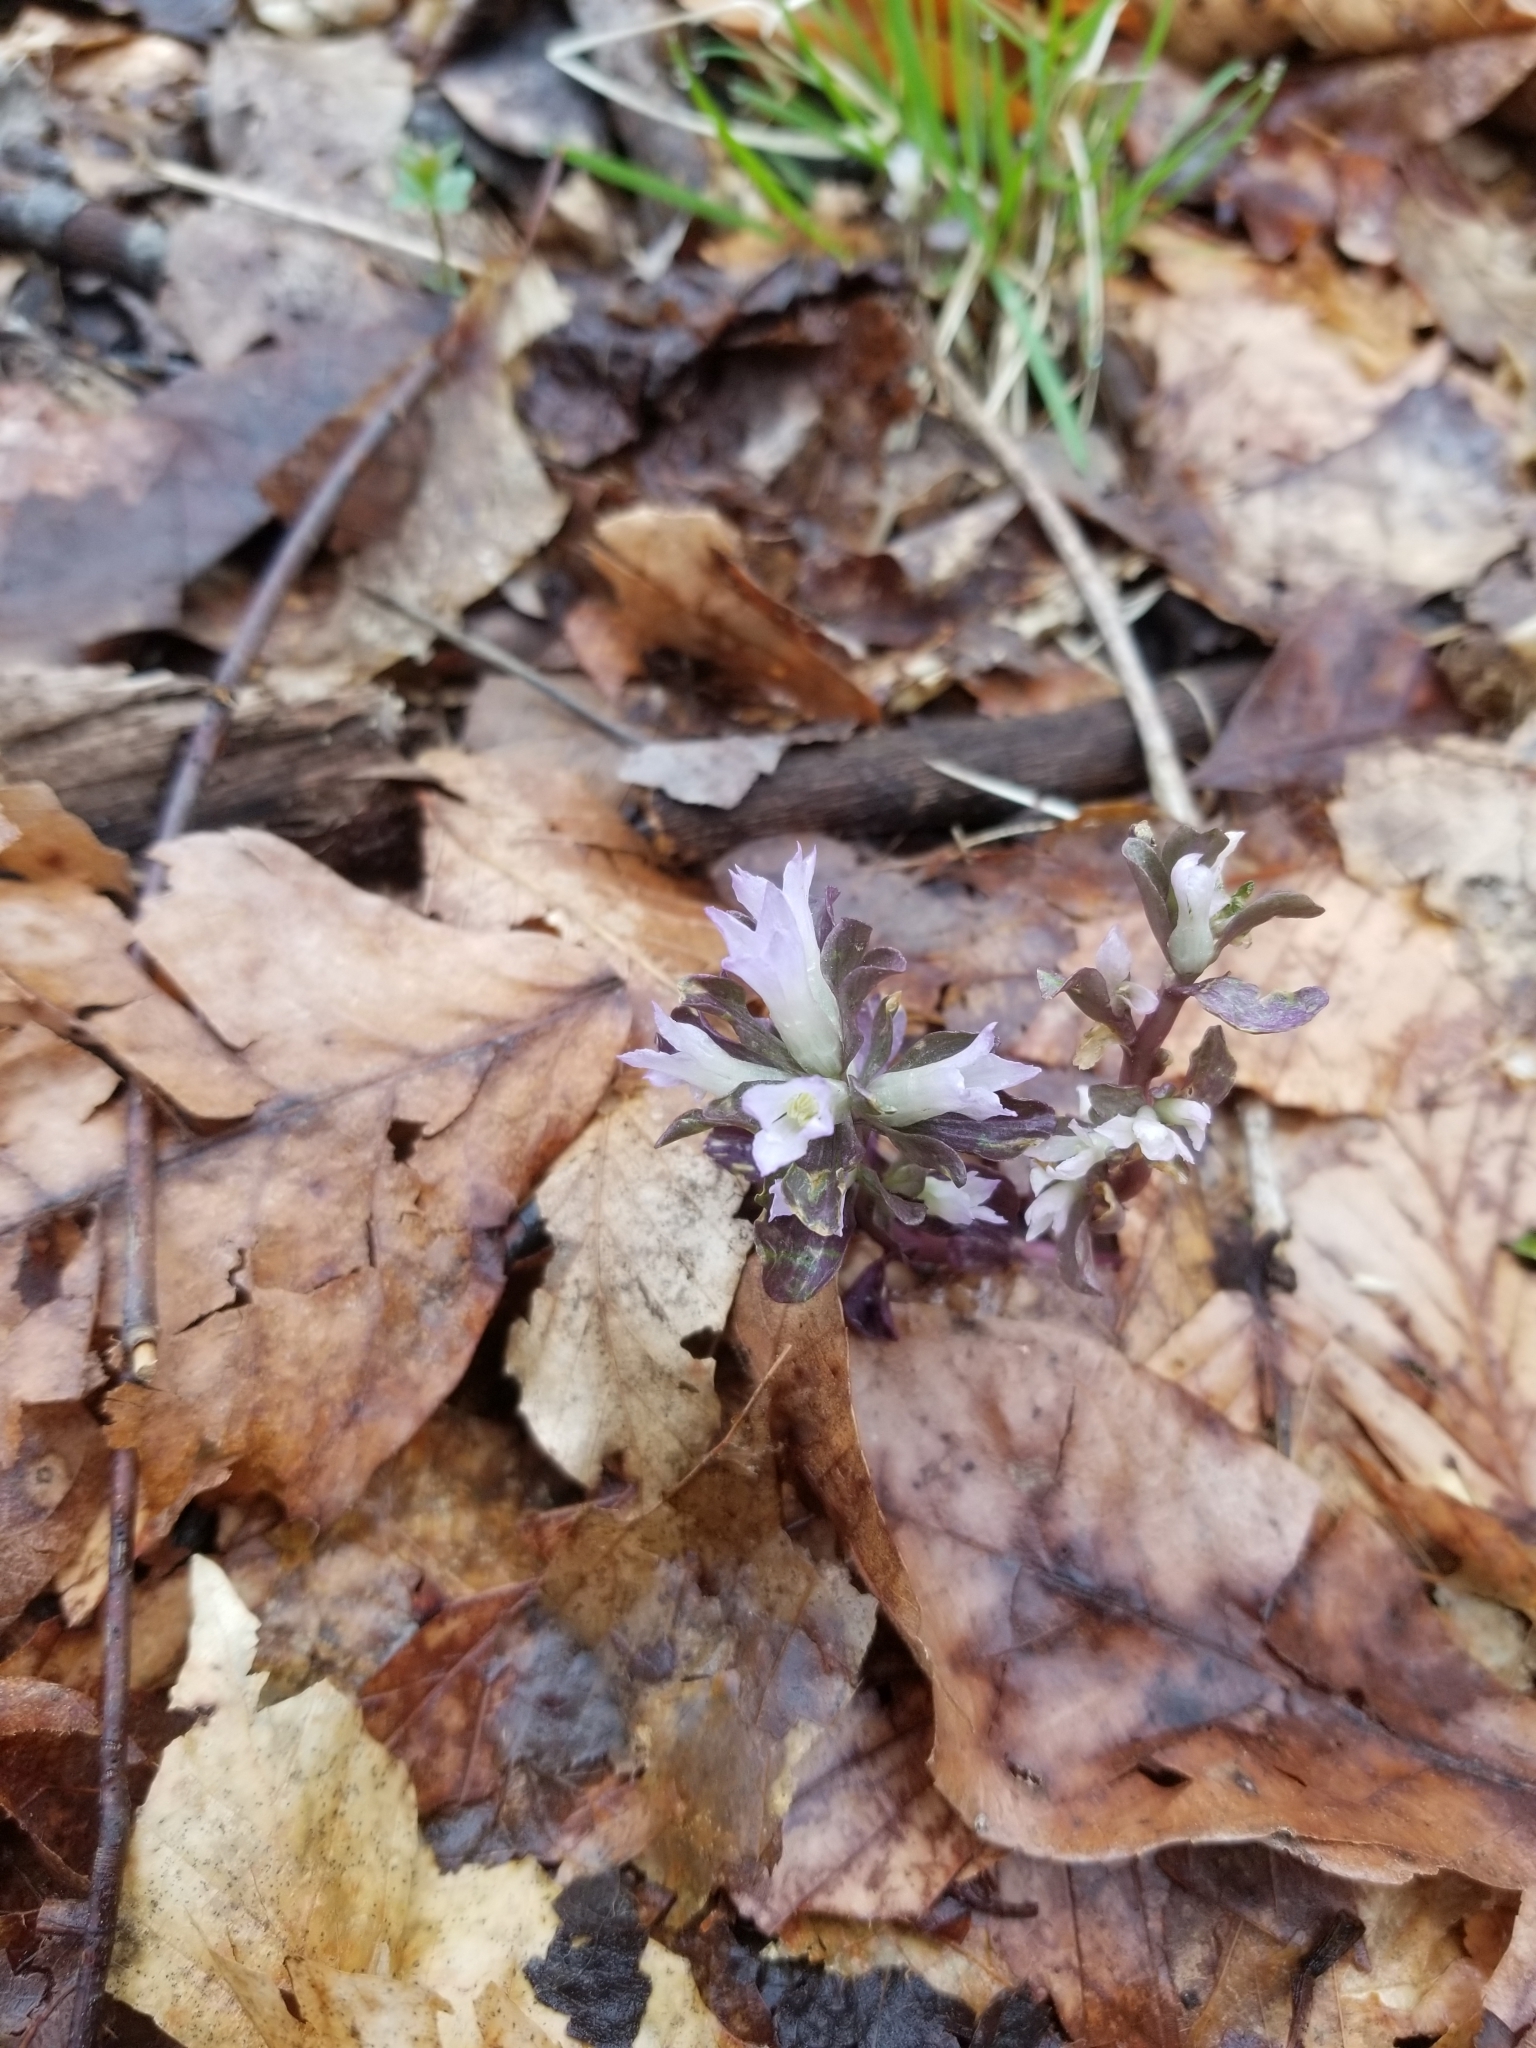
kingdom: Plantae
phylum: Tracheophyta
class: Magnoliopsida
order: Gentianales
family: Gentianaceae
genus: Obolaria
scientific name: Obolaria virginica
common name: Pennywort
